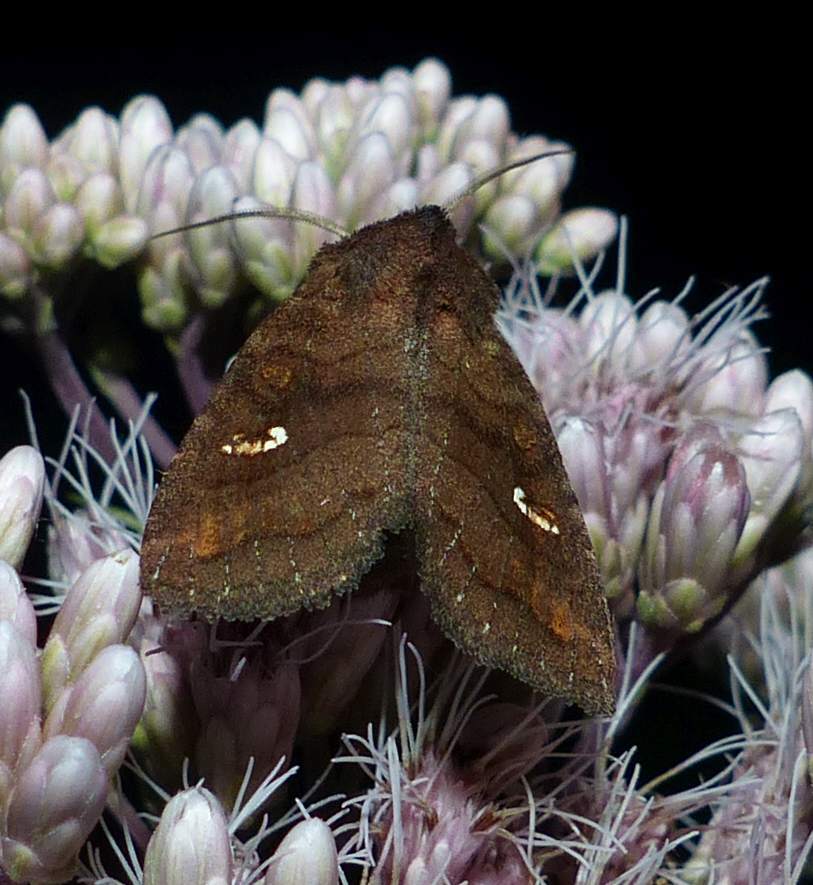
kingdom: Animalia
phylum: Arthropoda
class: Insecta
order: Lepidoptera
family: Noctuidae
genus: Tricholita
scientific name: Tricholita signata
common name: Signate quaker
